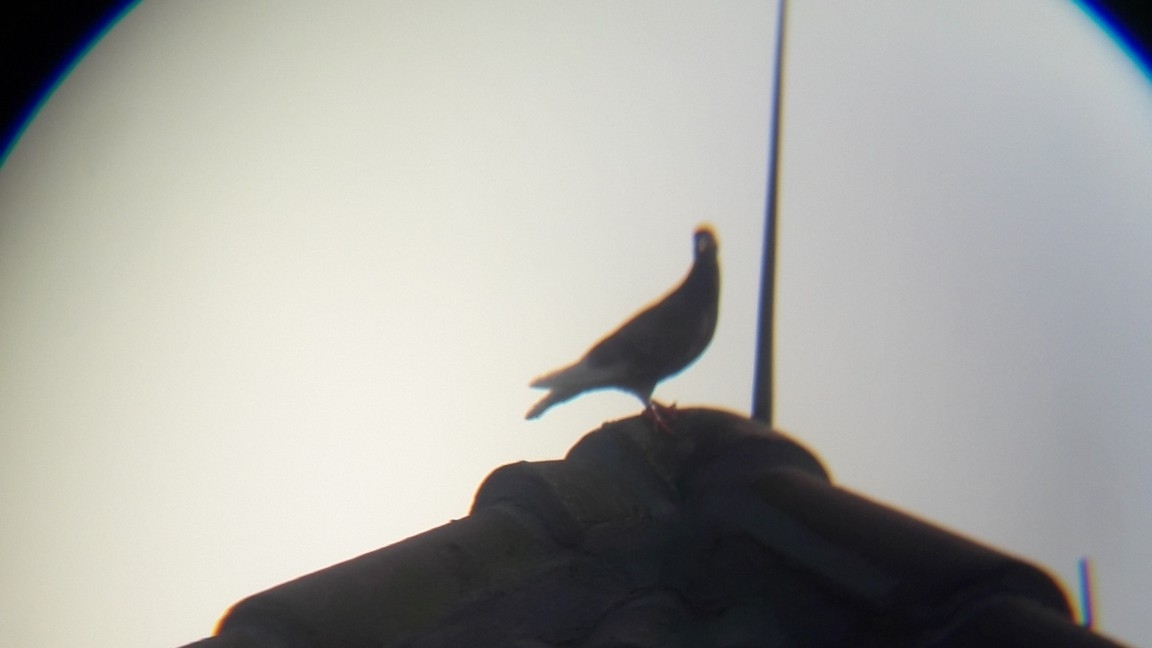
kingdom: Animalia
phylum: Chordata
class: Aves
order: Columbiformes
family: Columbidae
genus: Columba
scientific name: Columba livia
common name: Rock pigeon
